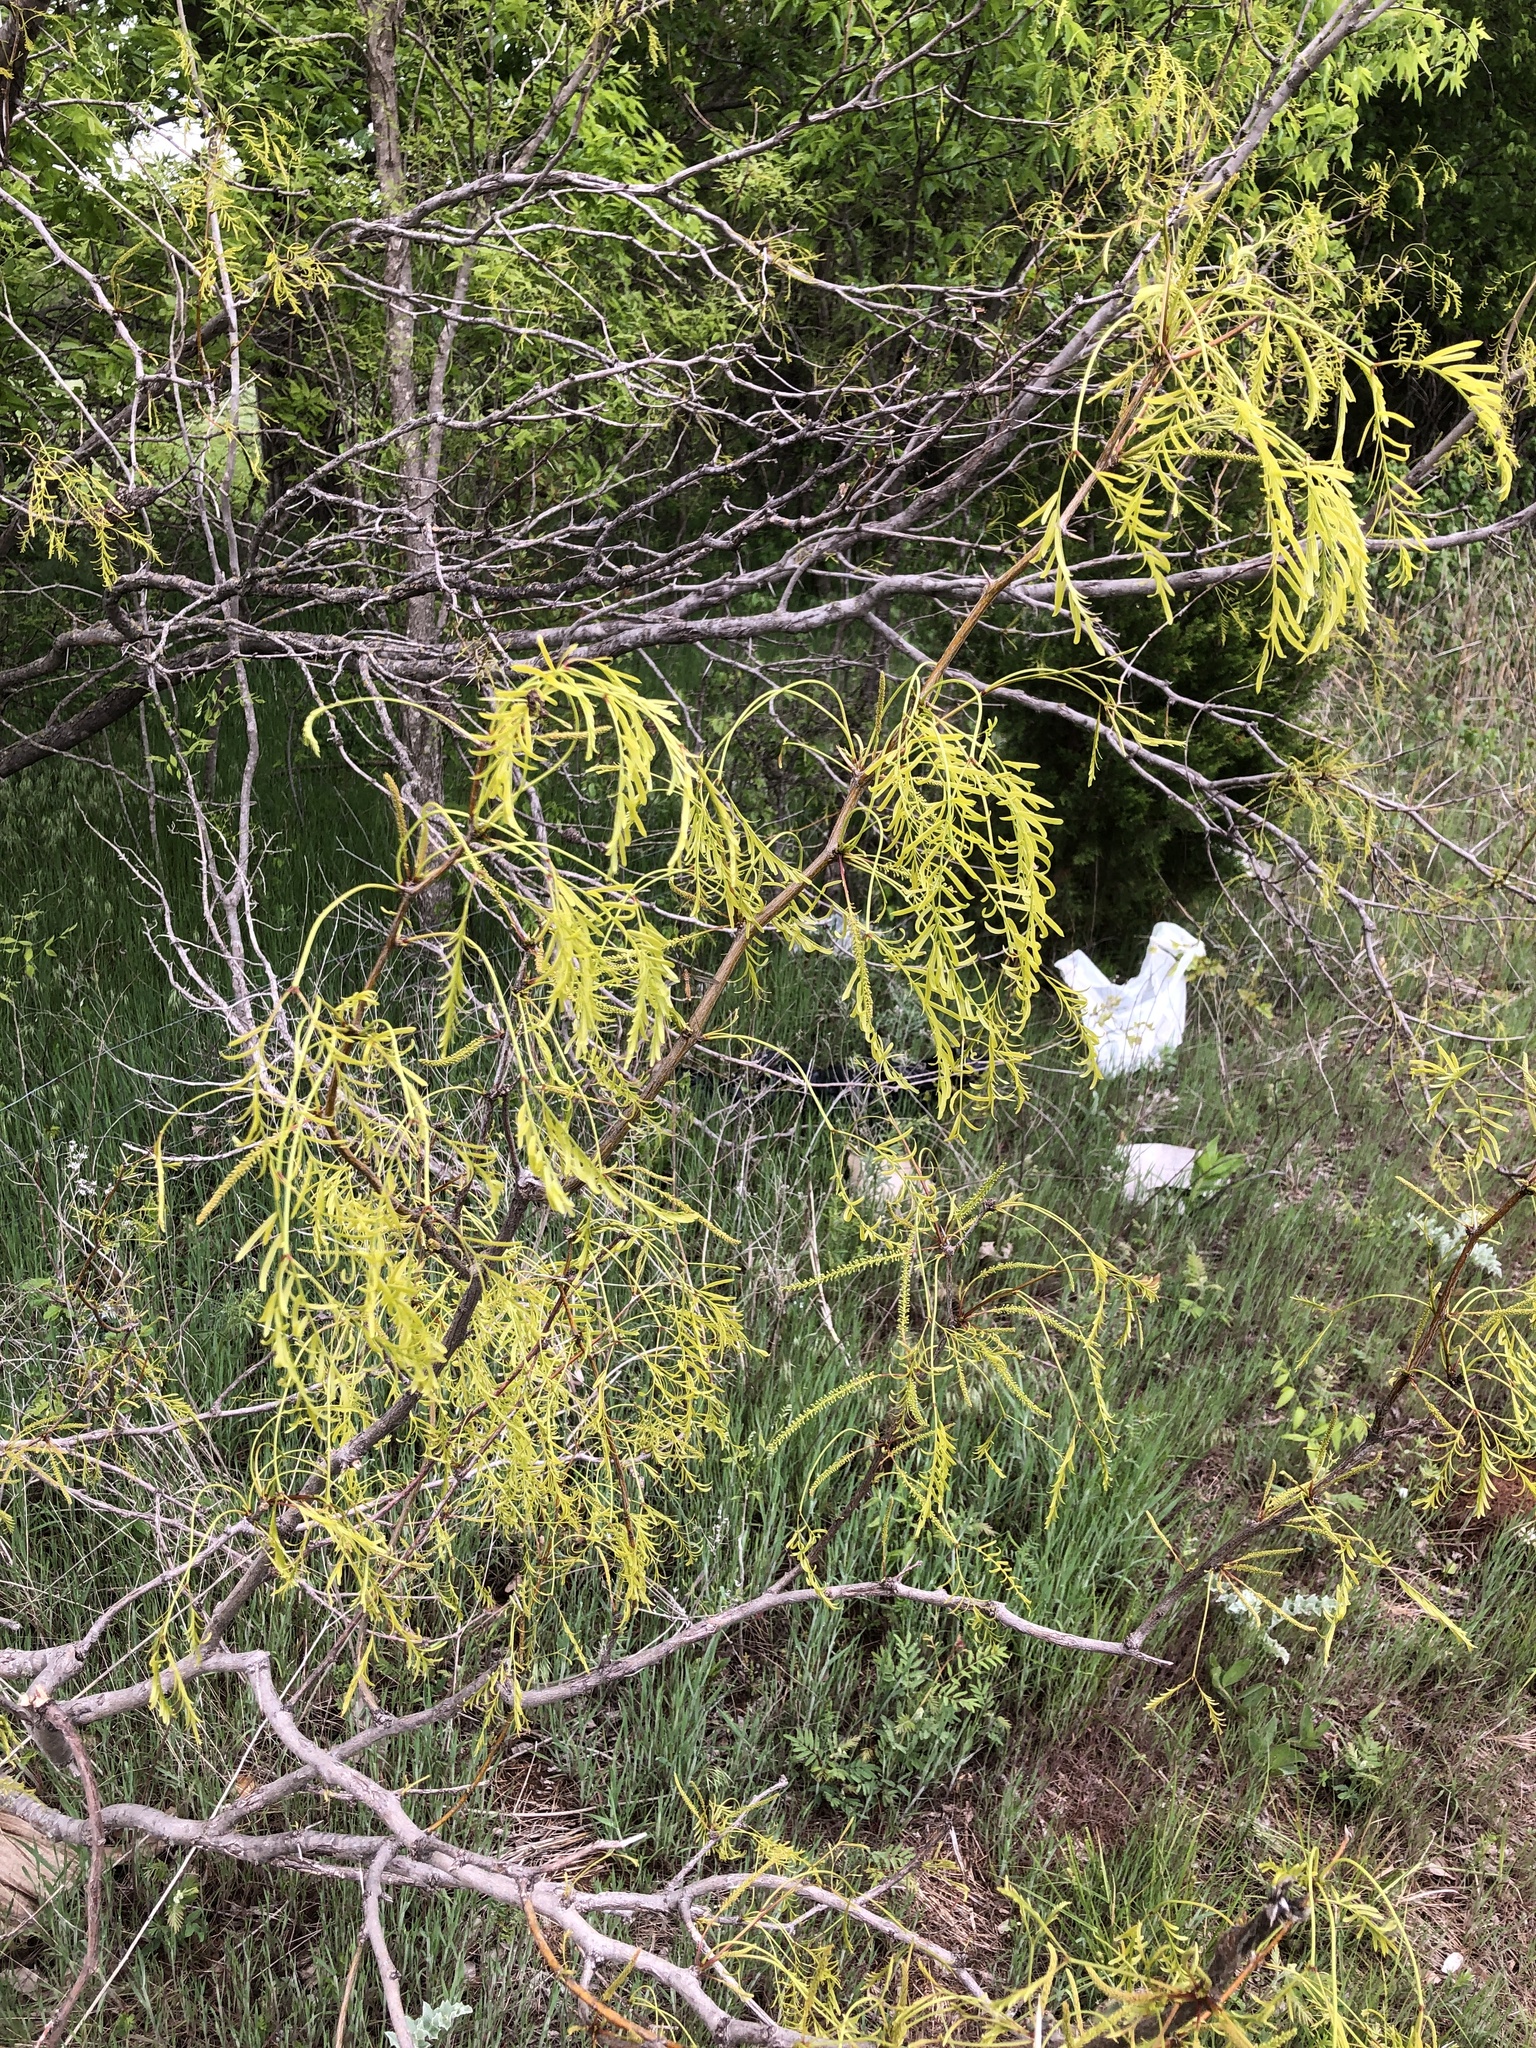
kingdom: Plantae
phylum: Tracheophyta
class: Magnoliopsida
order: Fabales
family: Fabaceae
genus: Prosopis
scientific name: Prosopis glandulosa
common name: Honey mesquite
